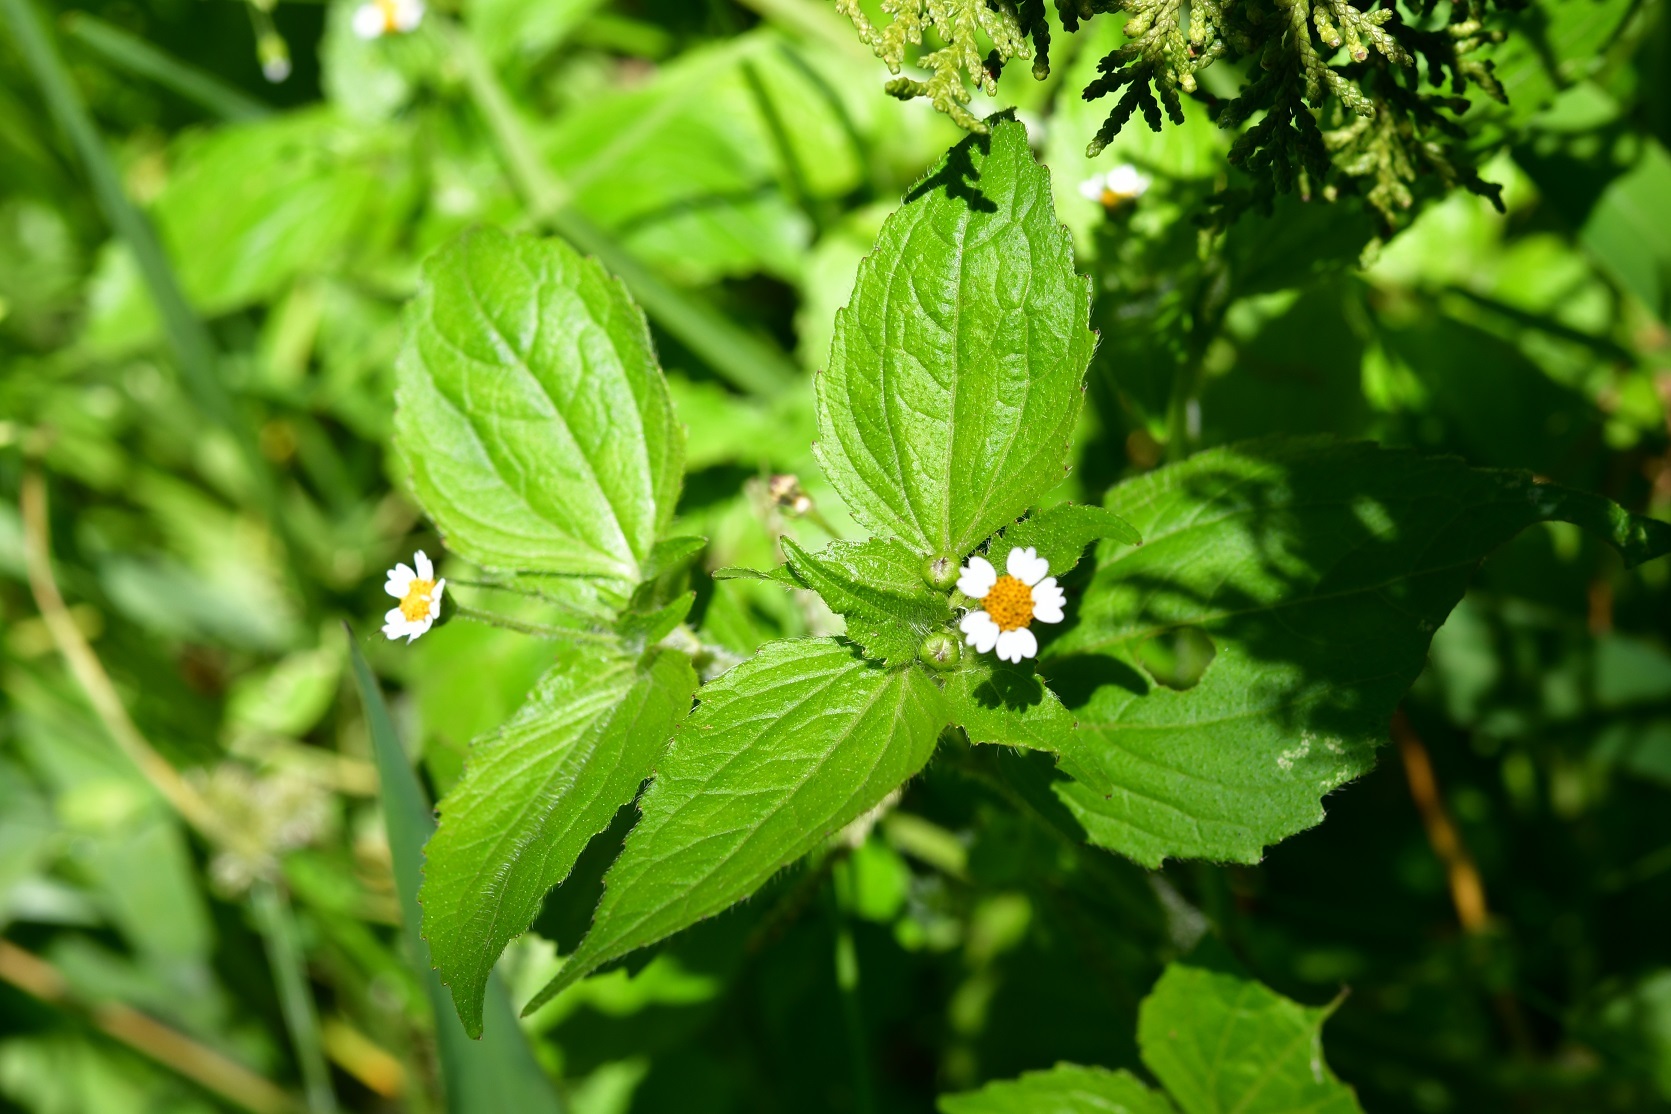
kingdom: Plantae
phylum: Tracheophyta
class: Magnoliopsida
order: Asterales
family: Asteraceae
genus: Galinsoga
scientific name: Galinsoga quadriradiata
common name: Shaggy soldier
